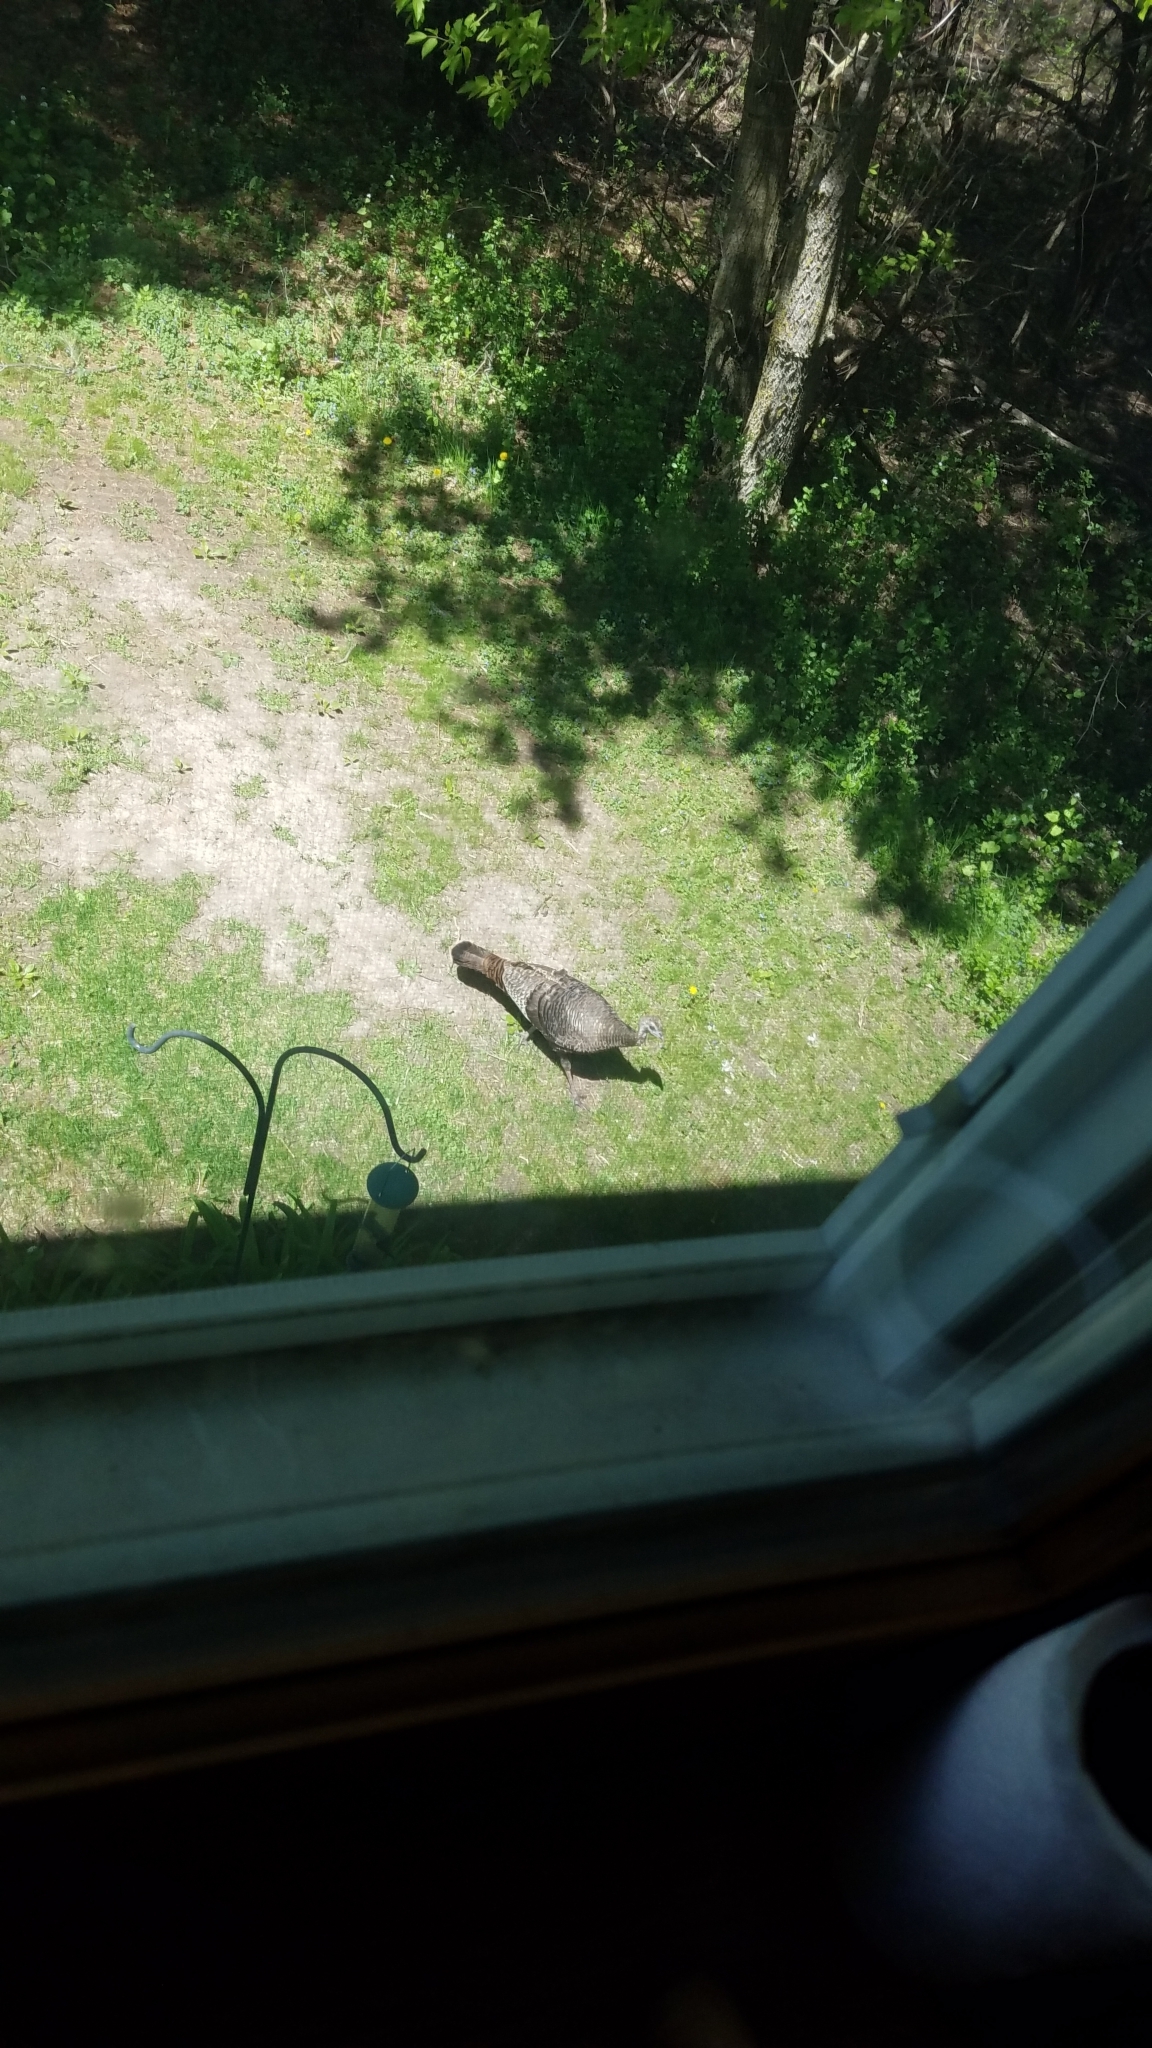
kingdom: Animalia
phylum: Chordata
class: Aves
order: Galliformes
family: Phasianidae
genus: Meleagris
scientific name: Meleagris gallopavo
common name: Wild turkey
